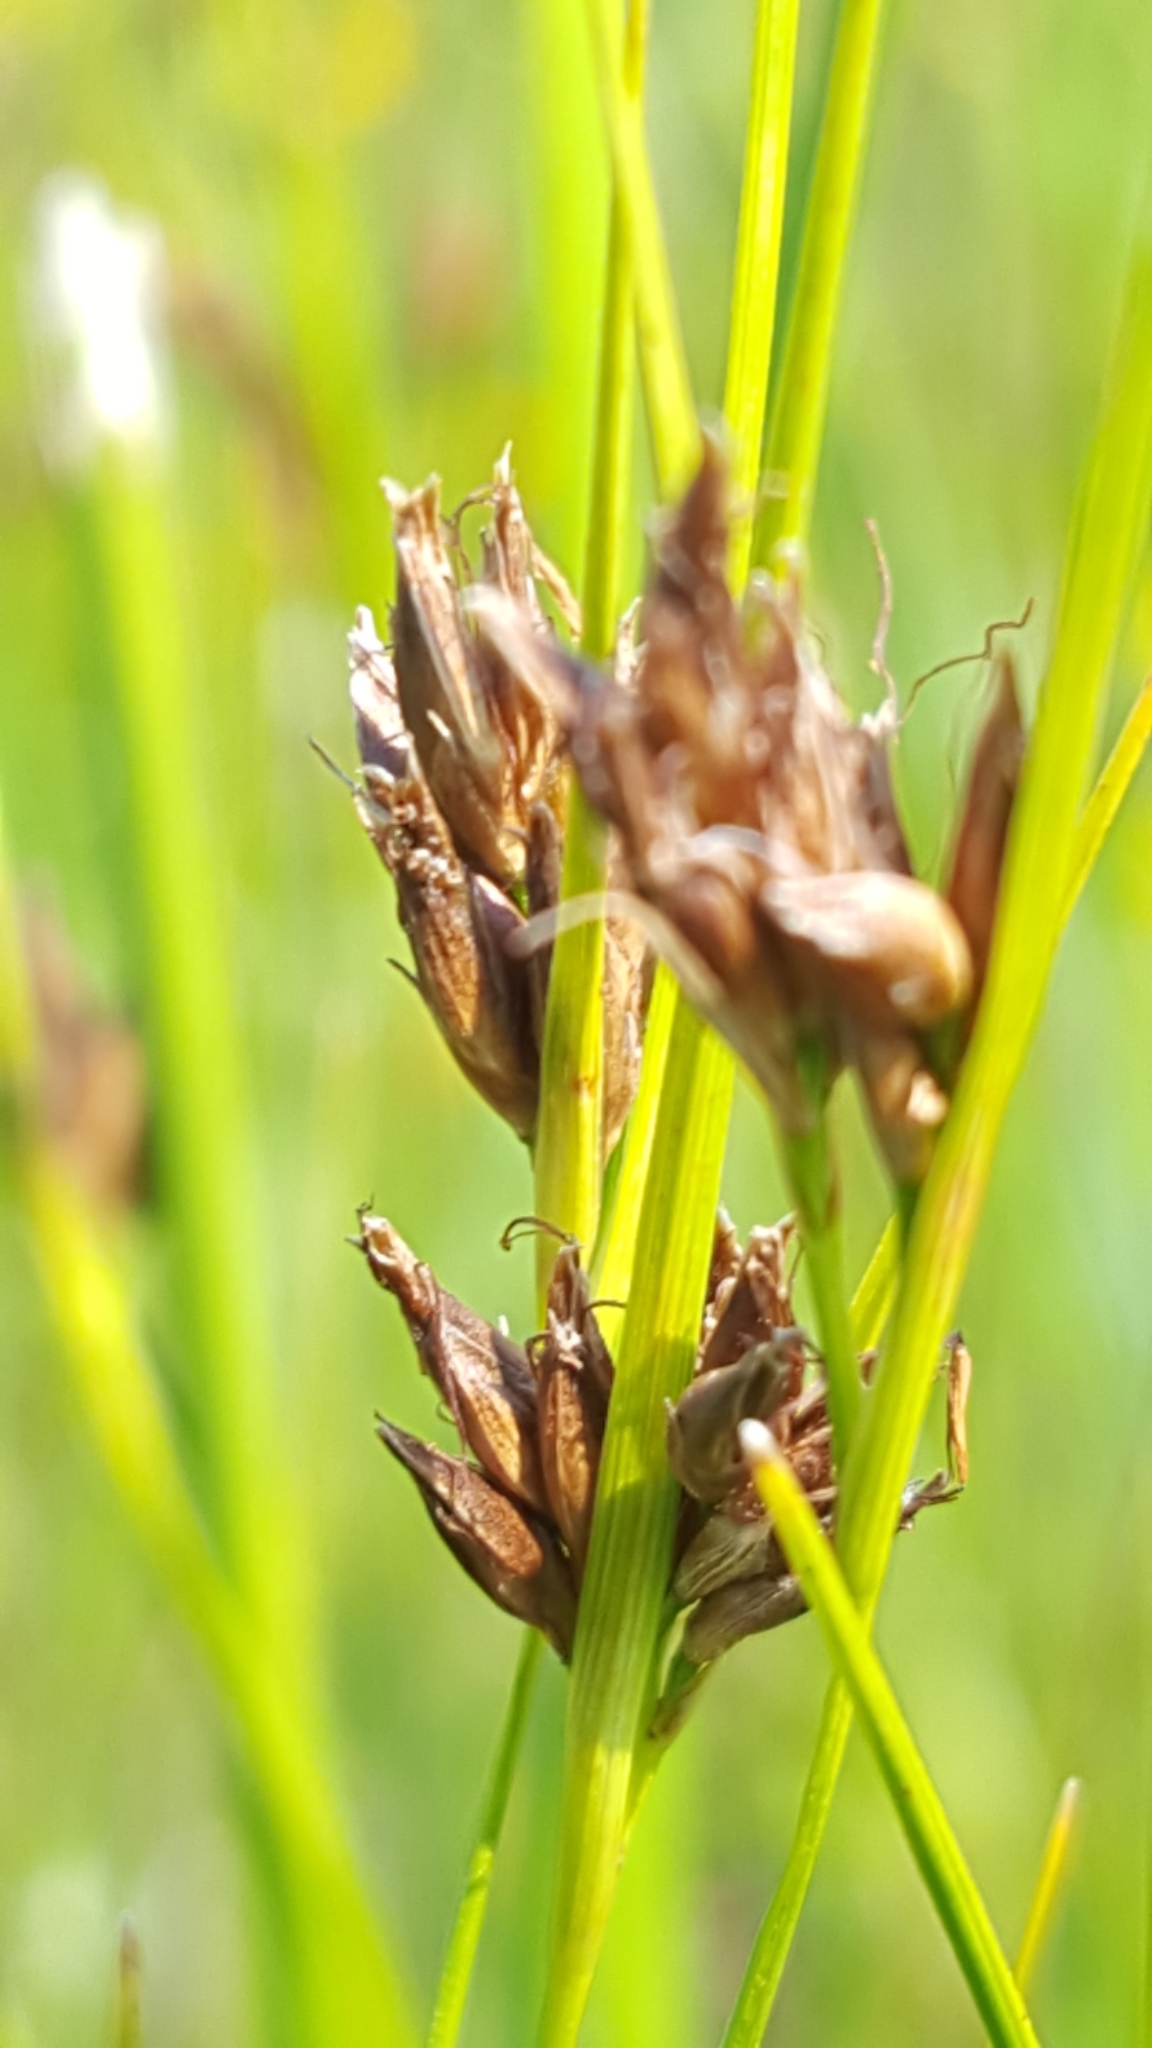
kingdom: Plantae
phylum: Tracheophyta
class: Liliopsida
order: Poales
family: Cyperaceae
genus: Rhynchospora
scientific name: Rhynchospora fusca
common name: Brown beak-sedge
